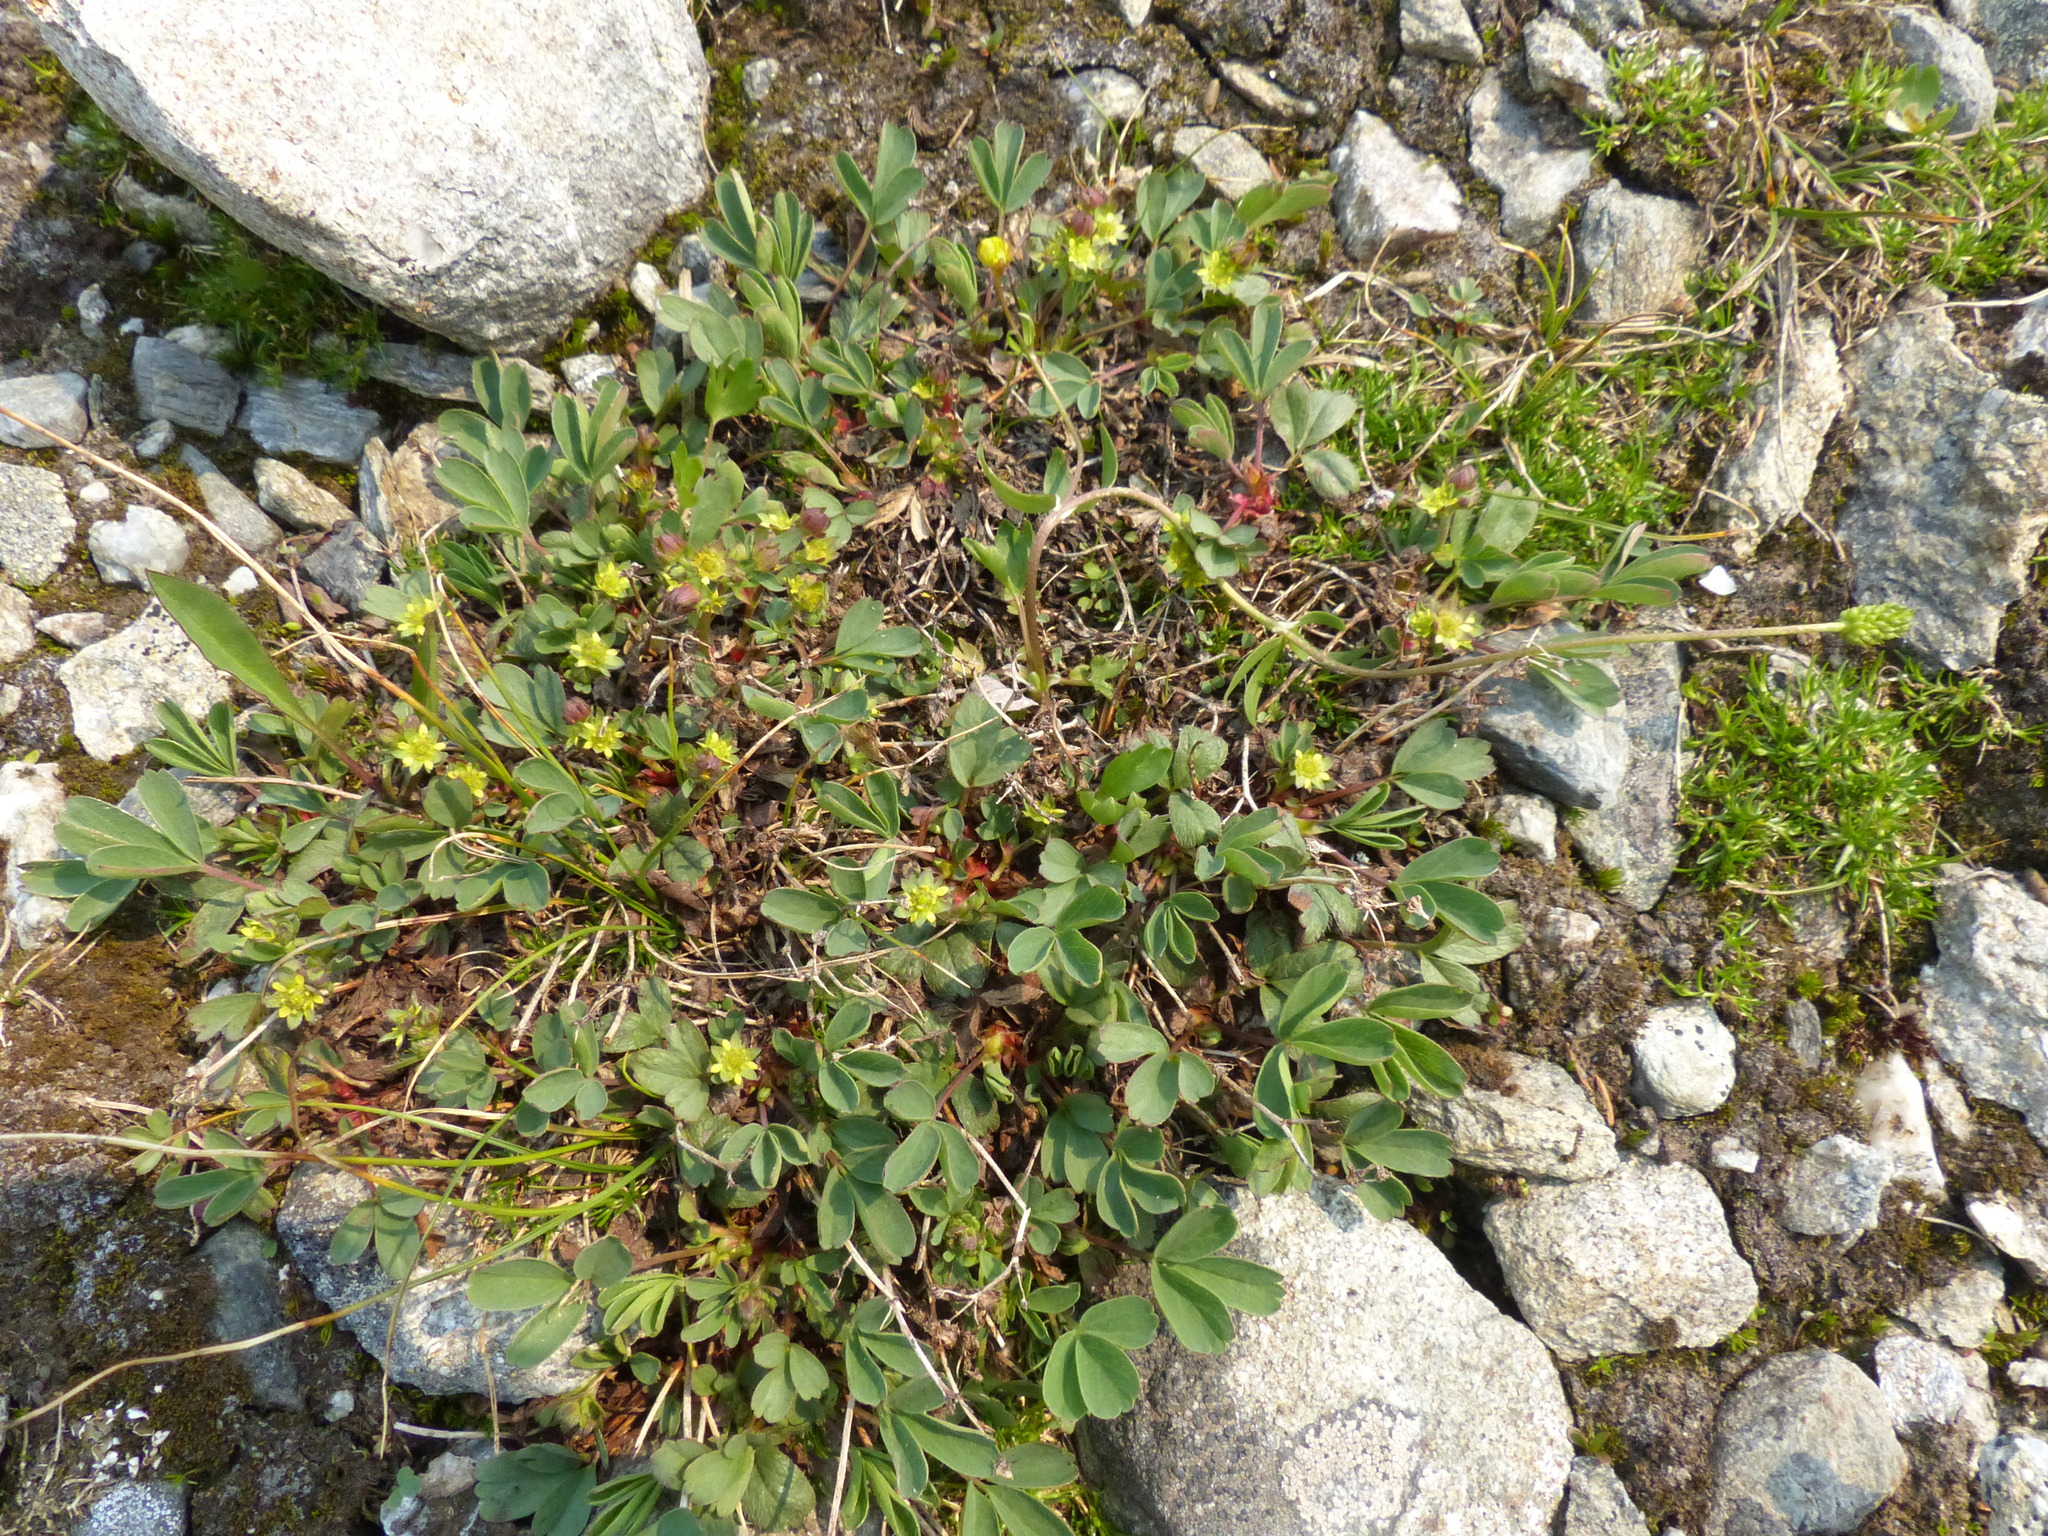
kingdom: Plantae
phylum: Tracheophyta
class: Magnoliopsida
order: Rosales
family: Rosaceae
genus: Sibbaldia
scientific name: Sibbaldia procumbens
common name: Creeping sibbaldia
